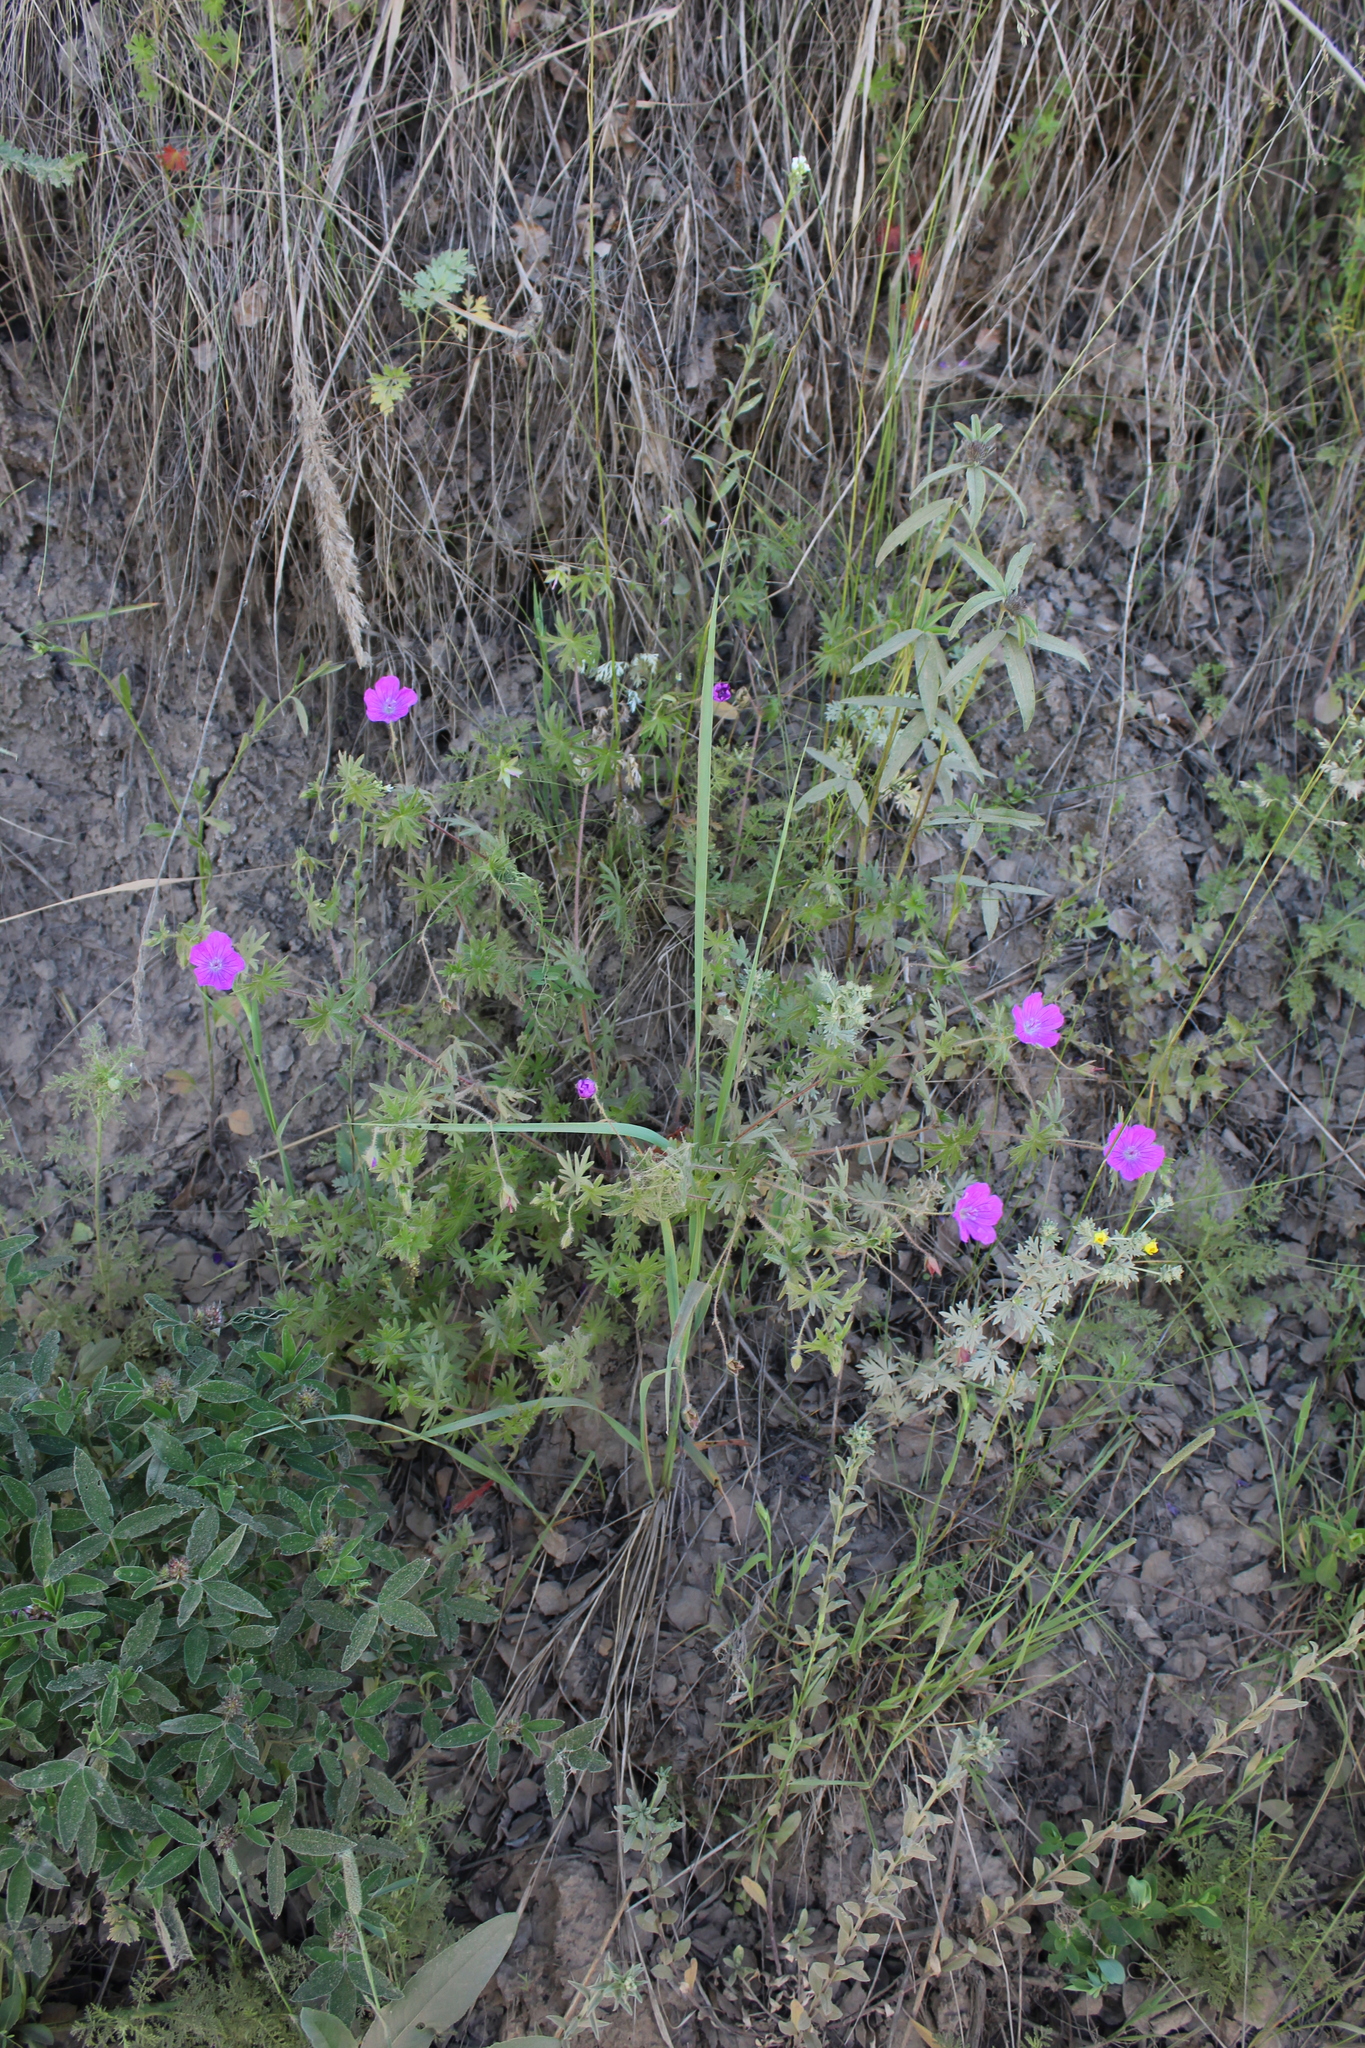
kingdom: Plantae
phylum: Tracheophyta
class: Magnoliopsida
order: Geraniales
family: Geraniaceae
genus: Geranium
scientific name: Geranium sanguineum
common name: Bloody crane's-bill
